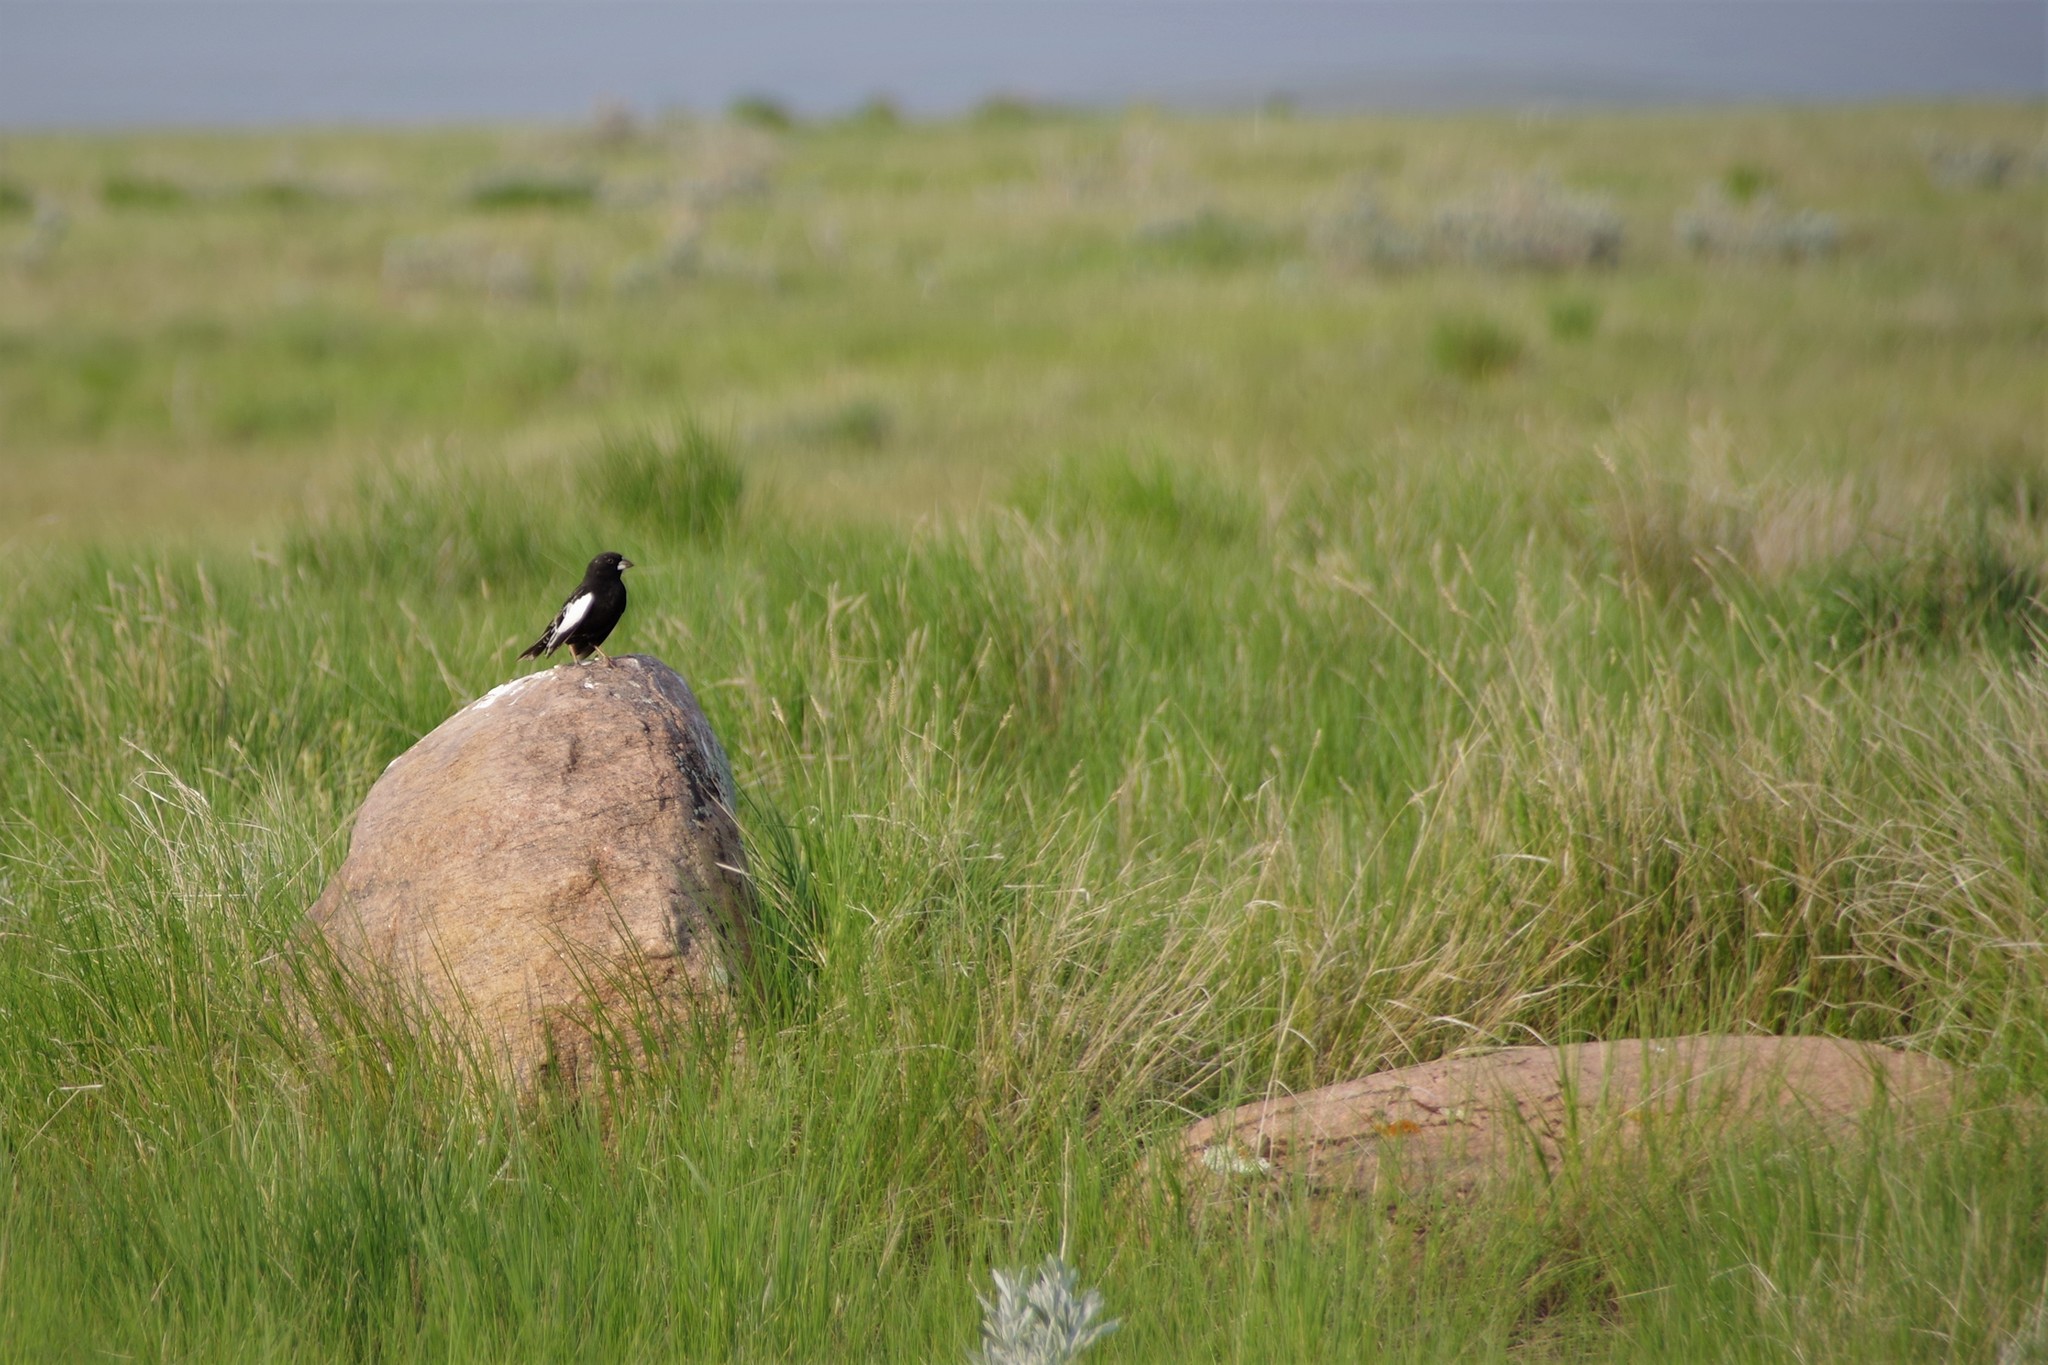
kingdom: Animalia
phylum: Chordata
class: Aves
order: Passeriformes
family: Passerellidae
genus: Calamospiza
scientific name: Calamospiza melanocorys
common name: Lark bunting
